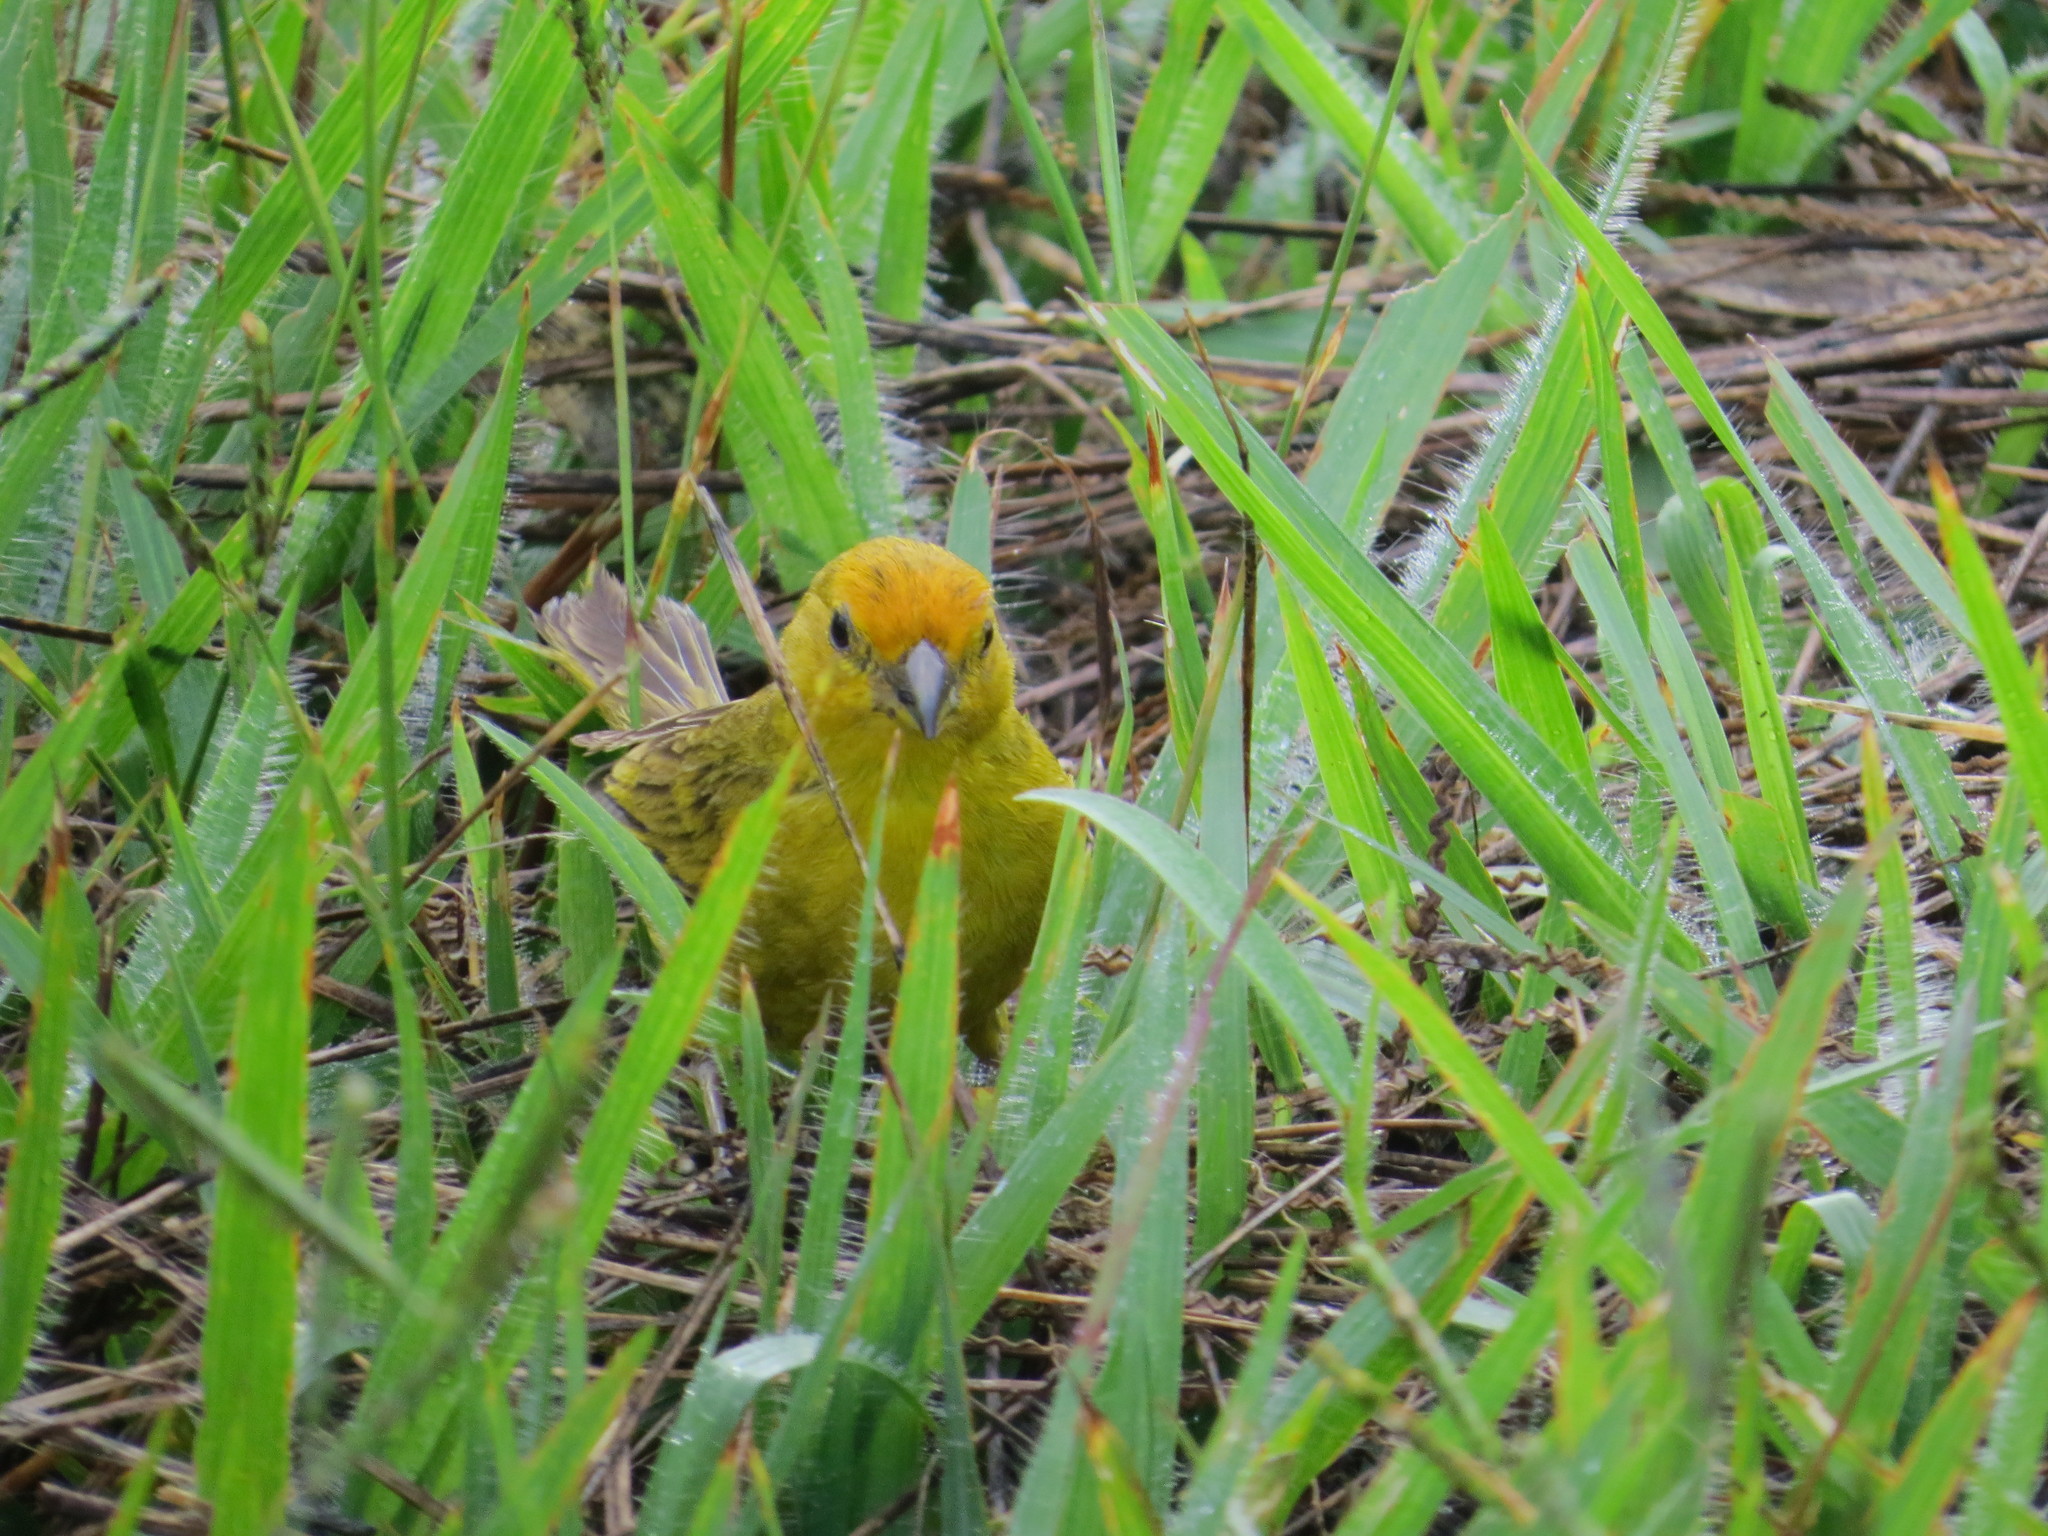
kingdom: Animalia
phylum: Chordata
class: Aves
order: Passeriformes
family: Thraupidae
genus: Sicalis
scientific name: Sicalis flaveola
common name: Saffron finch
